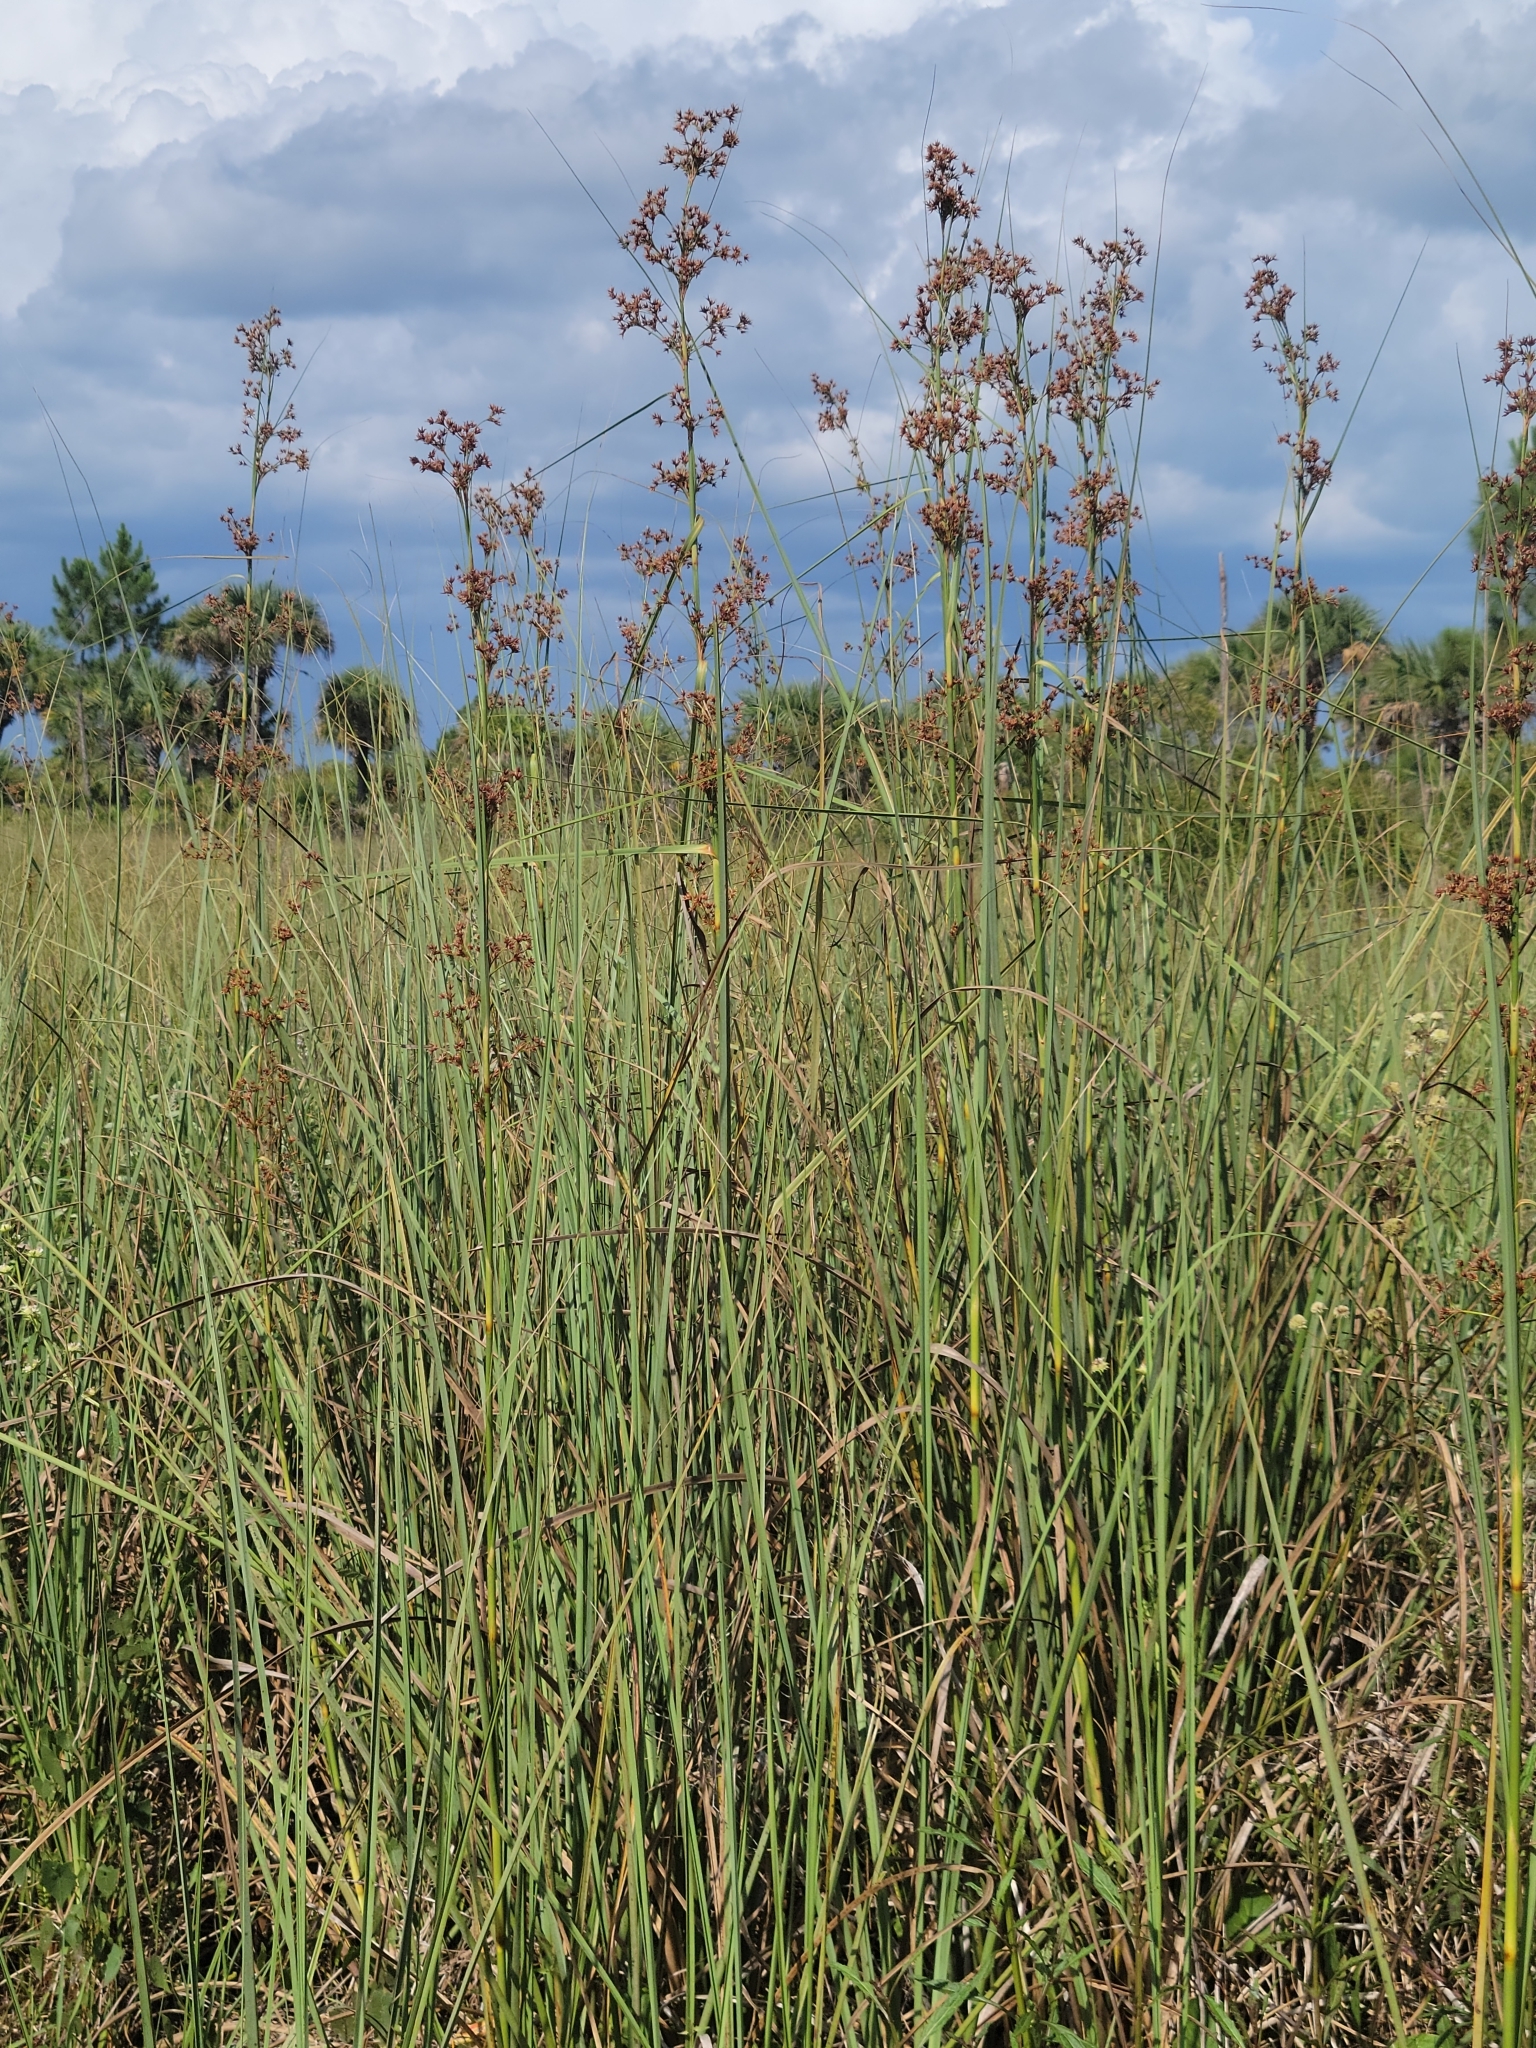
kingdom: Plantae
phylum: Tracheophyta
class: Liliopsida
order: Poales
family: Cyperaceae
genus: Cladium
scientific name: Cladium mariscus
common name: Great fen-sedge
